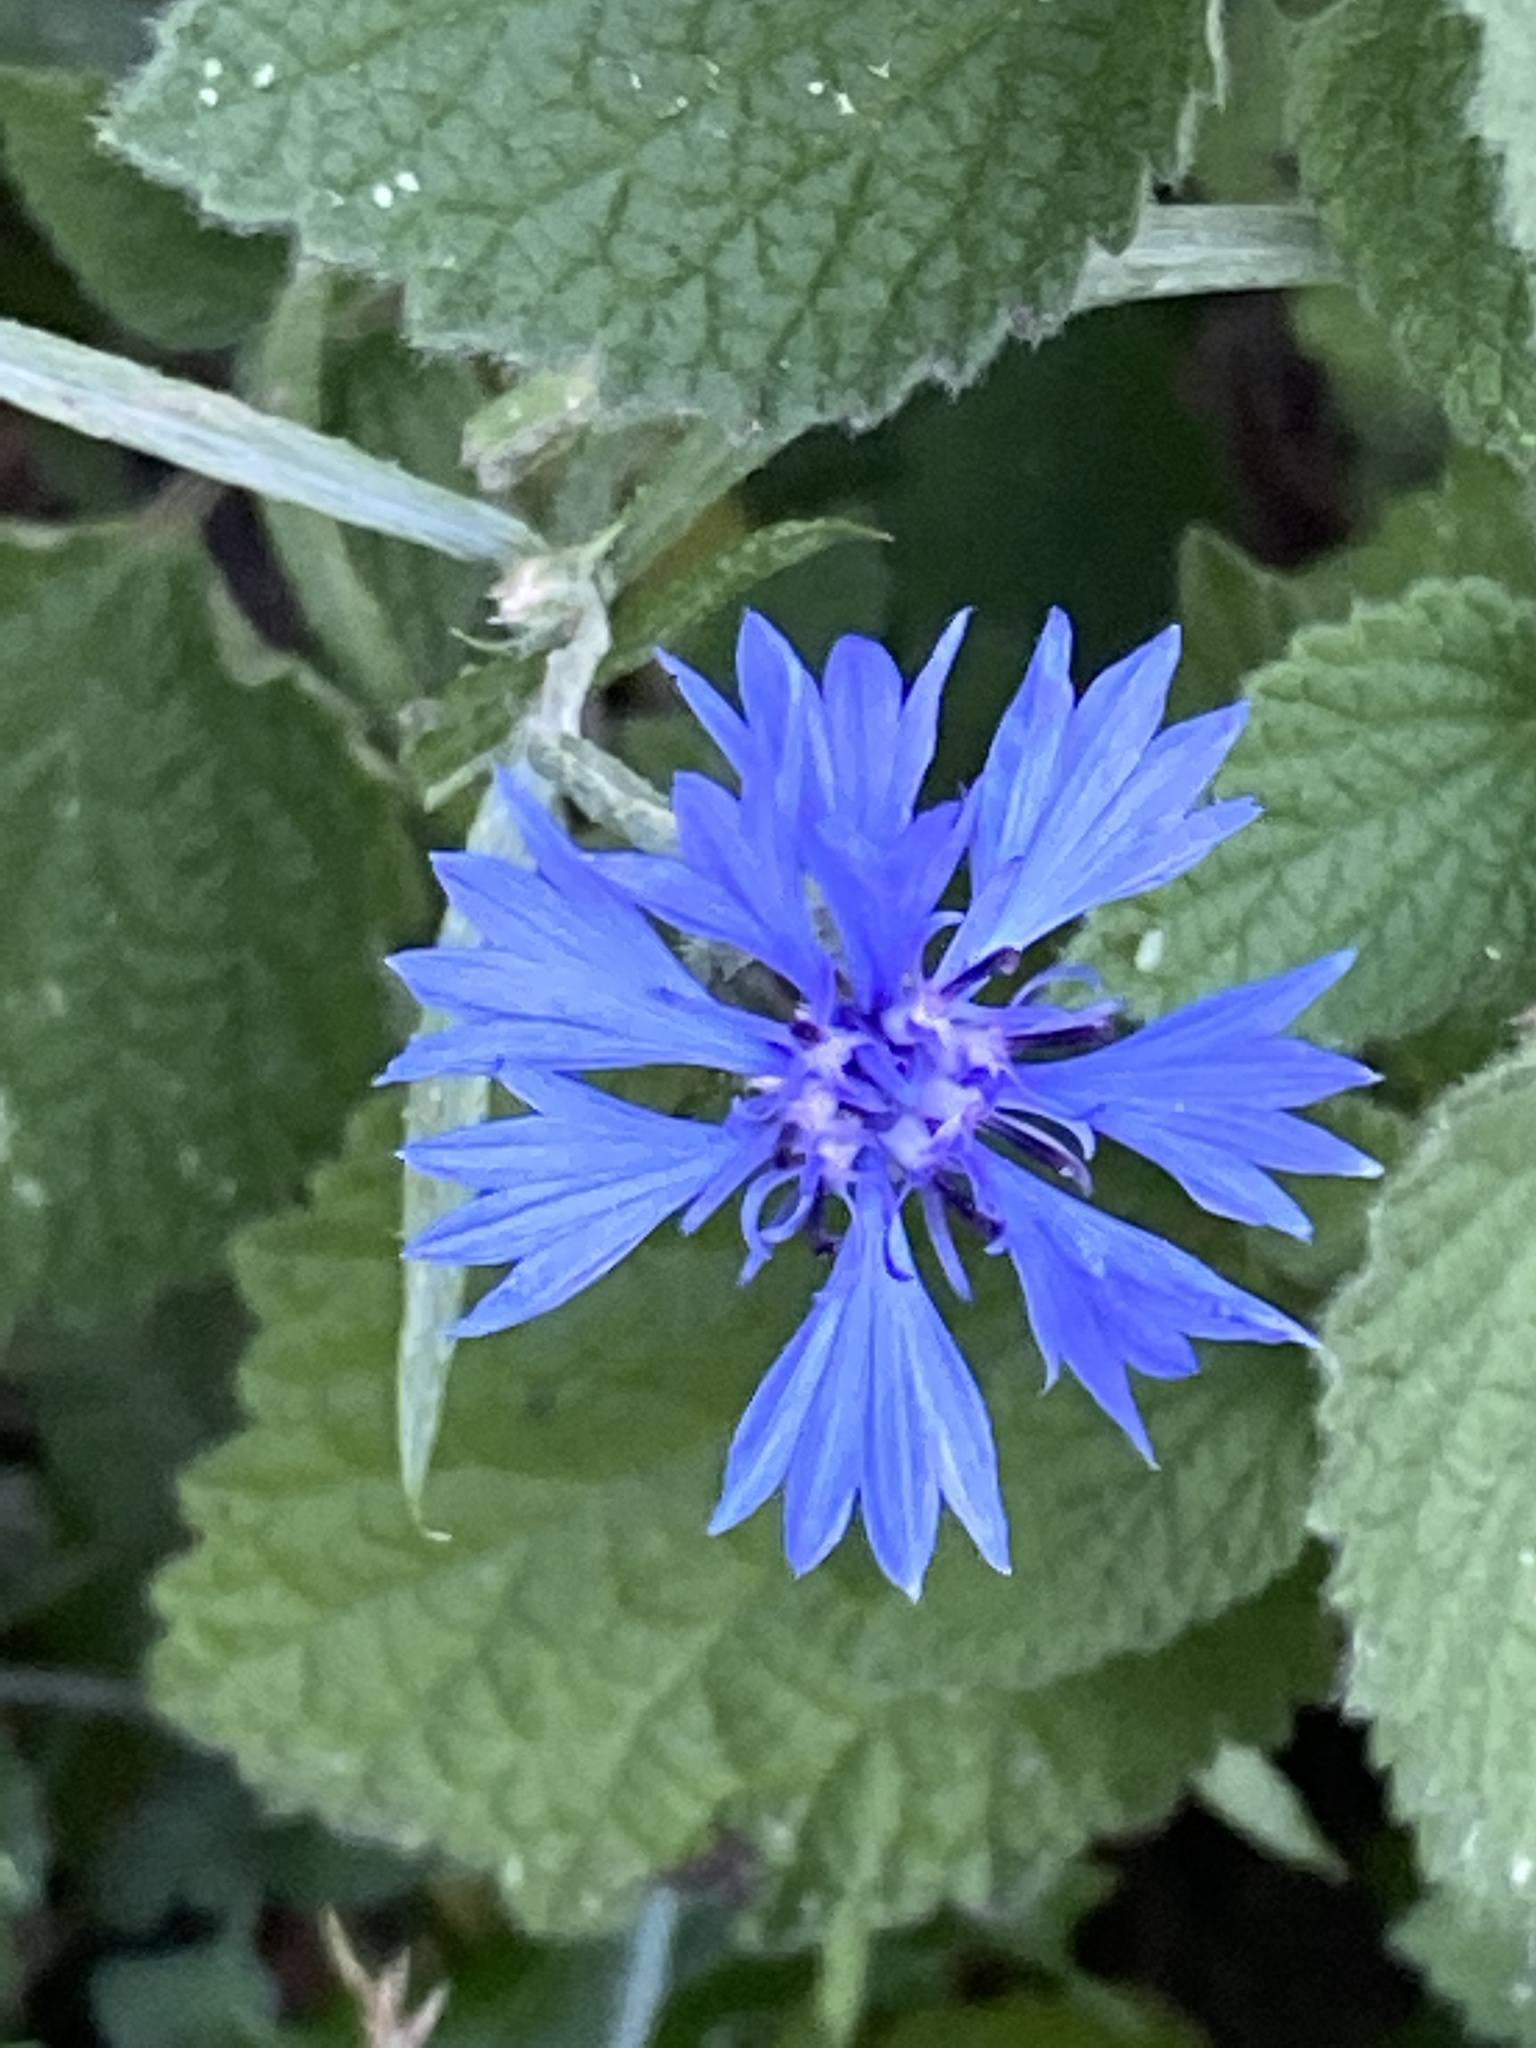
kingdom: Plantae
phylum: Tracheophyta
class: Magnoliopsida
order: Asterales
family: Asteraceae
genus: Centaurea
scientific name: Centaurea cyanus
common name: Cornflower
